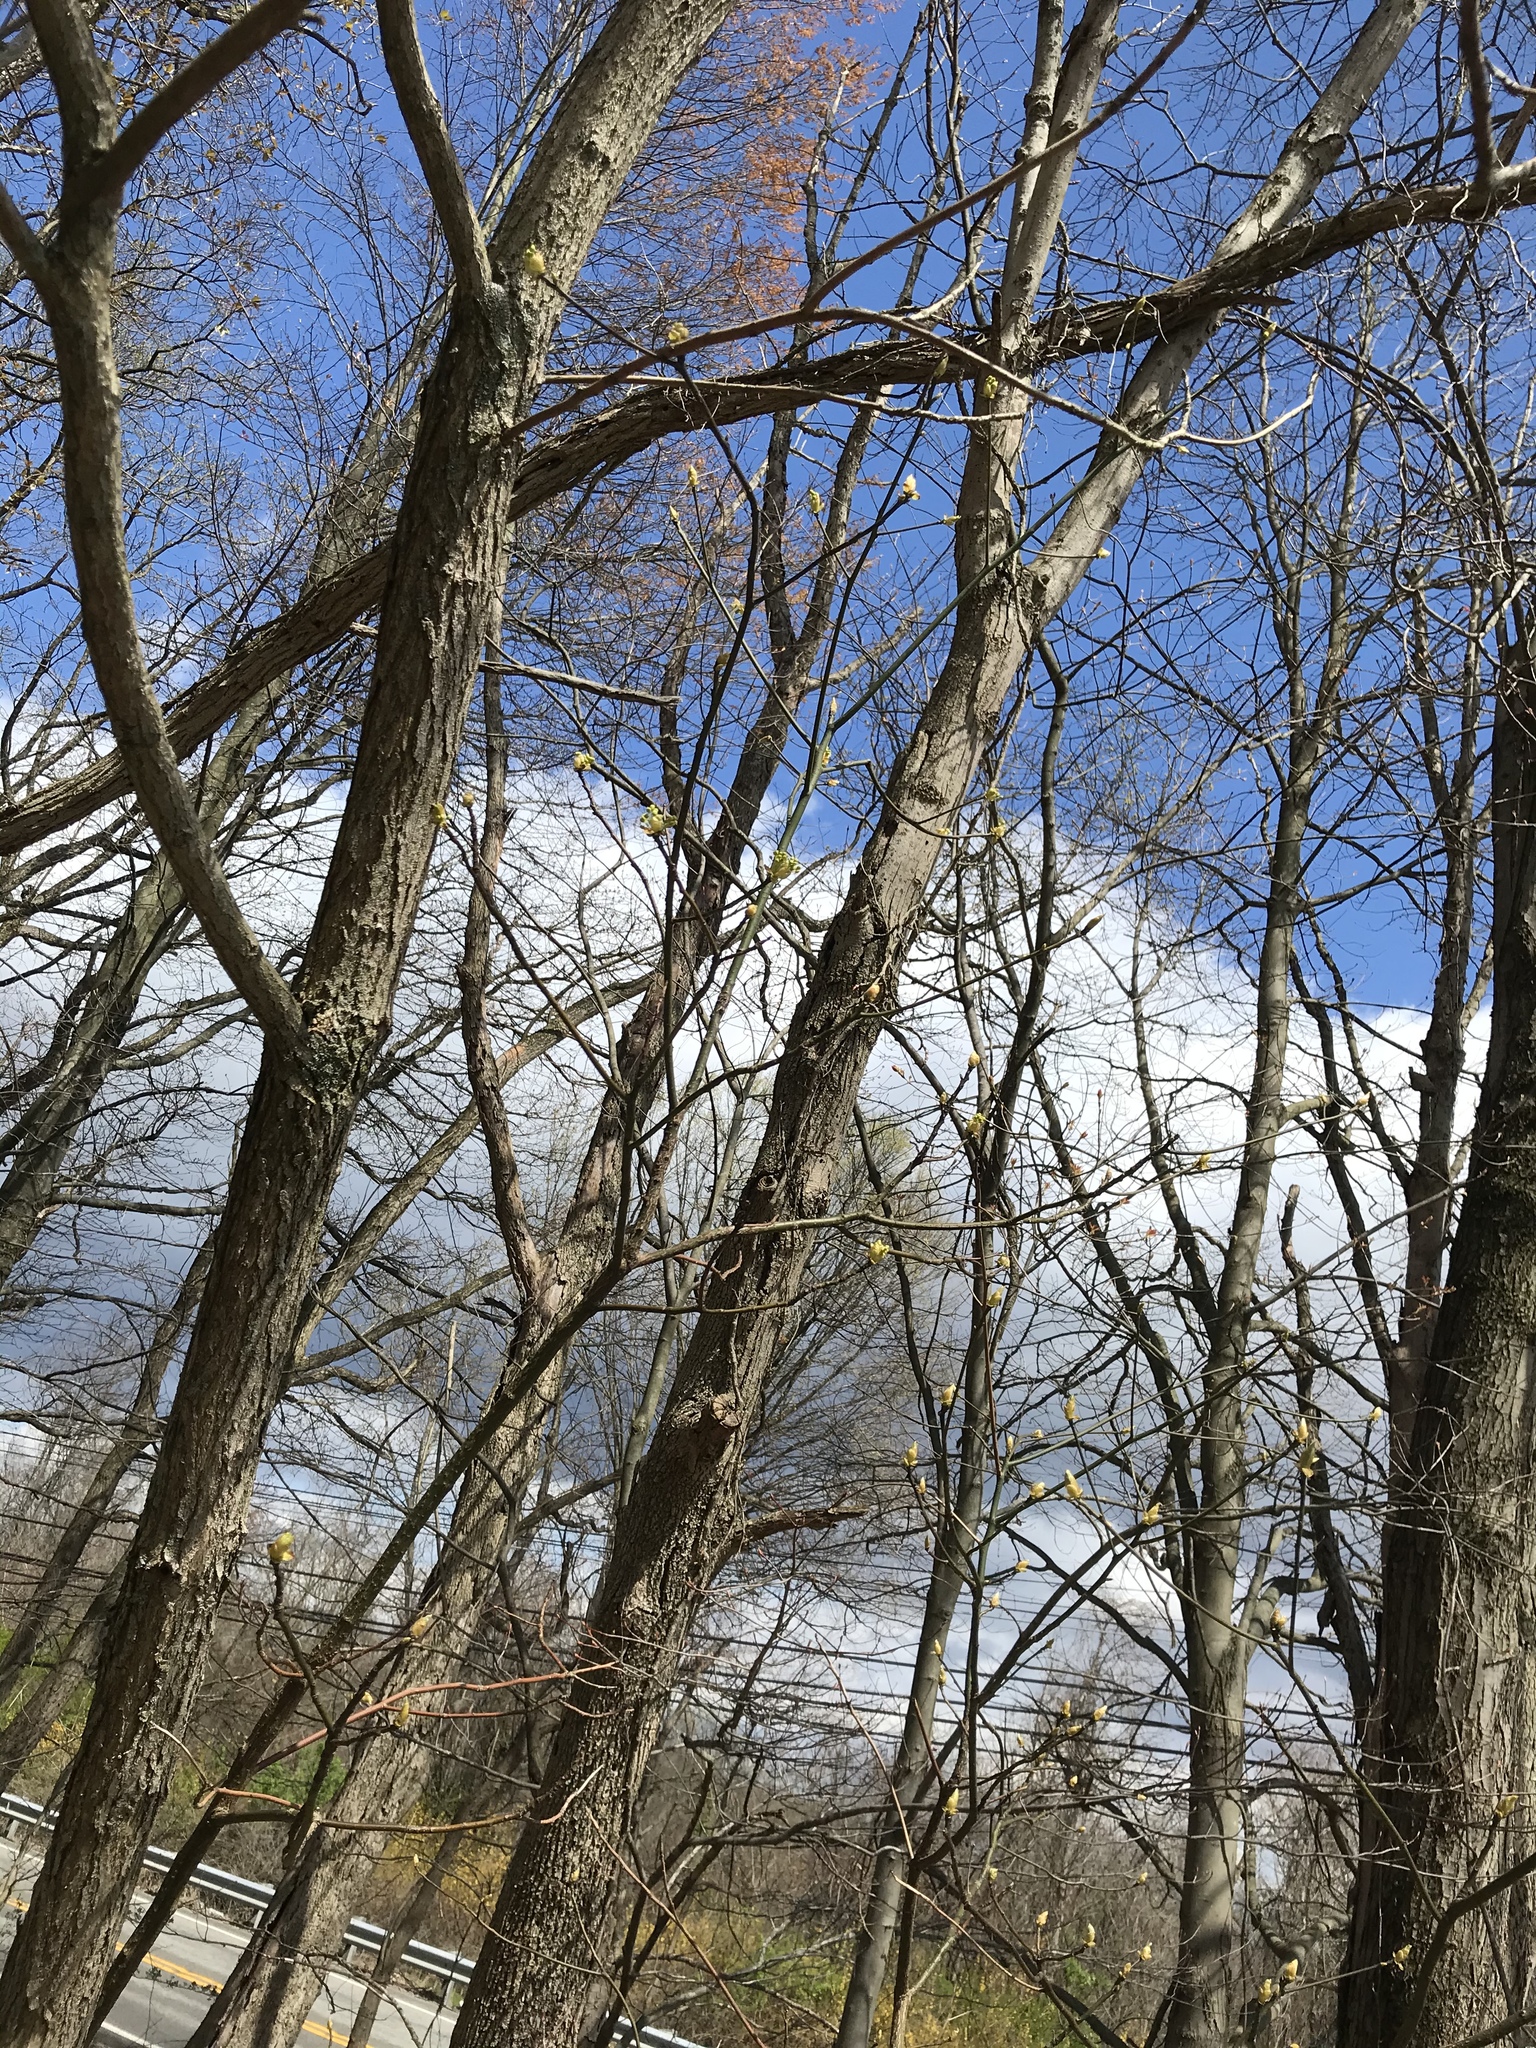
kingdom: Plantae
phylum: Tracheophyta
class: Magnoliopsida
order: Laurales
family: Lauraceae
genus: Sassafras
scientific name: Sassafras albidum
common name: Sassafras
